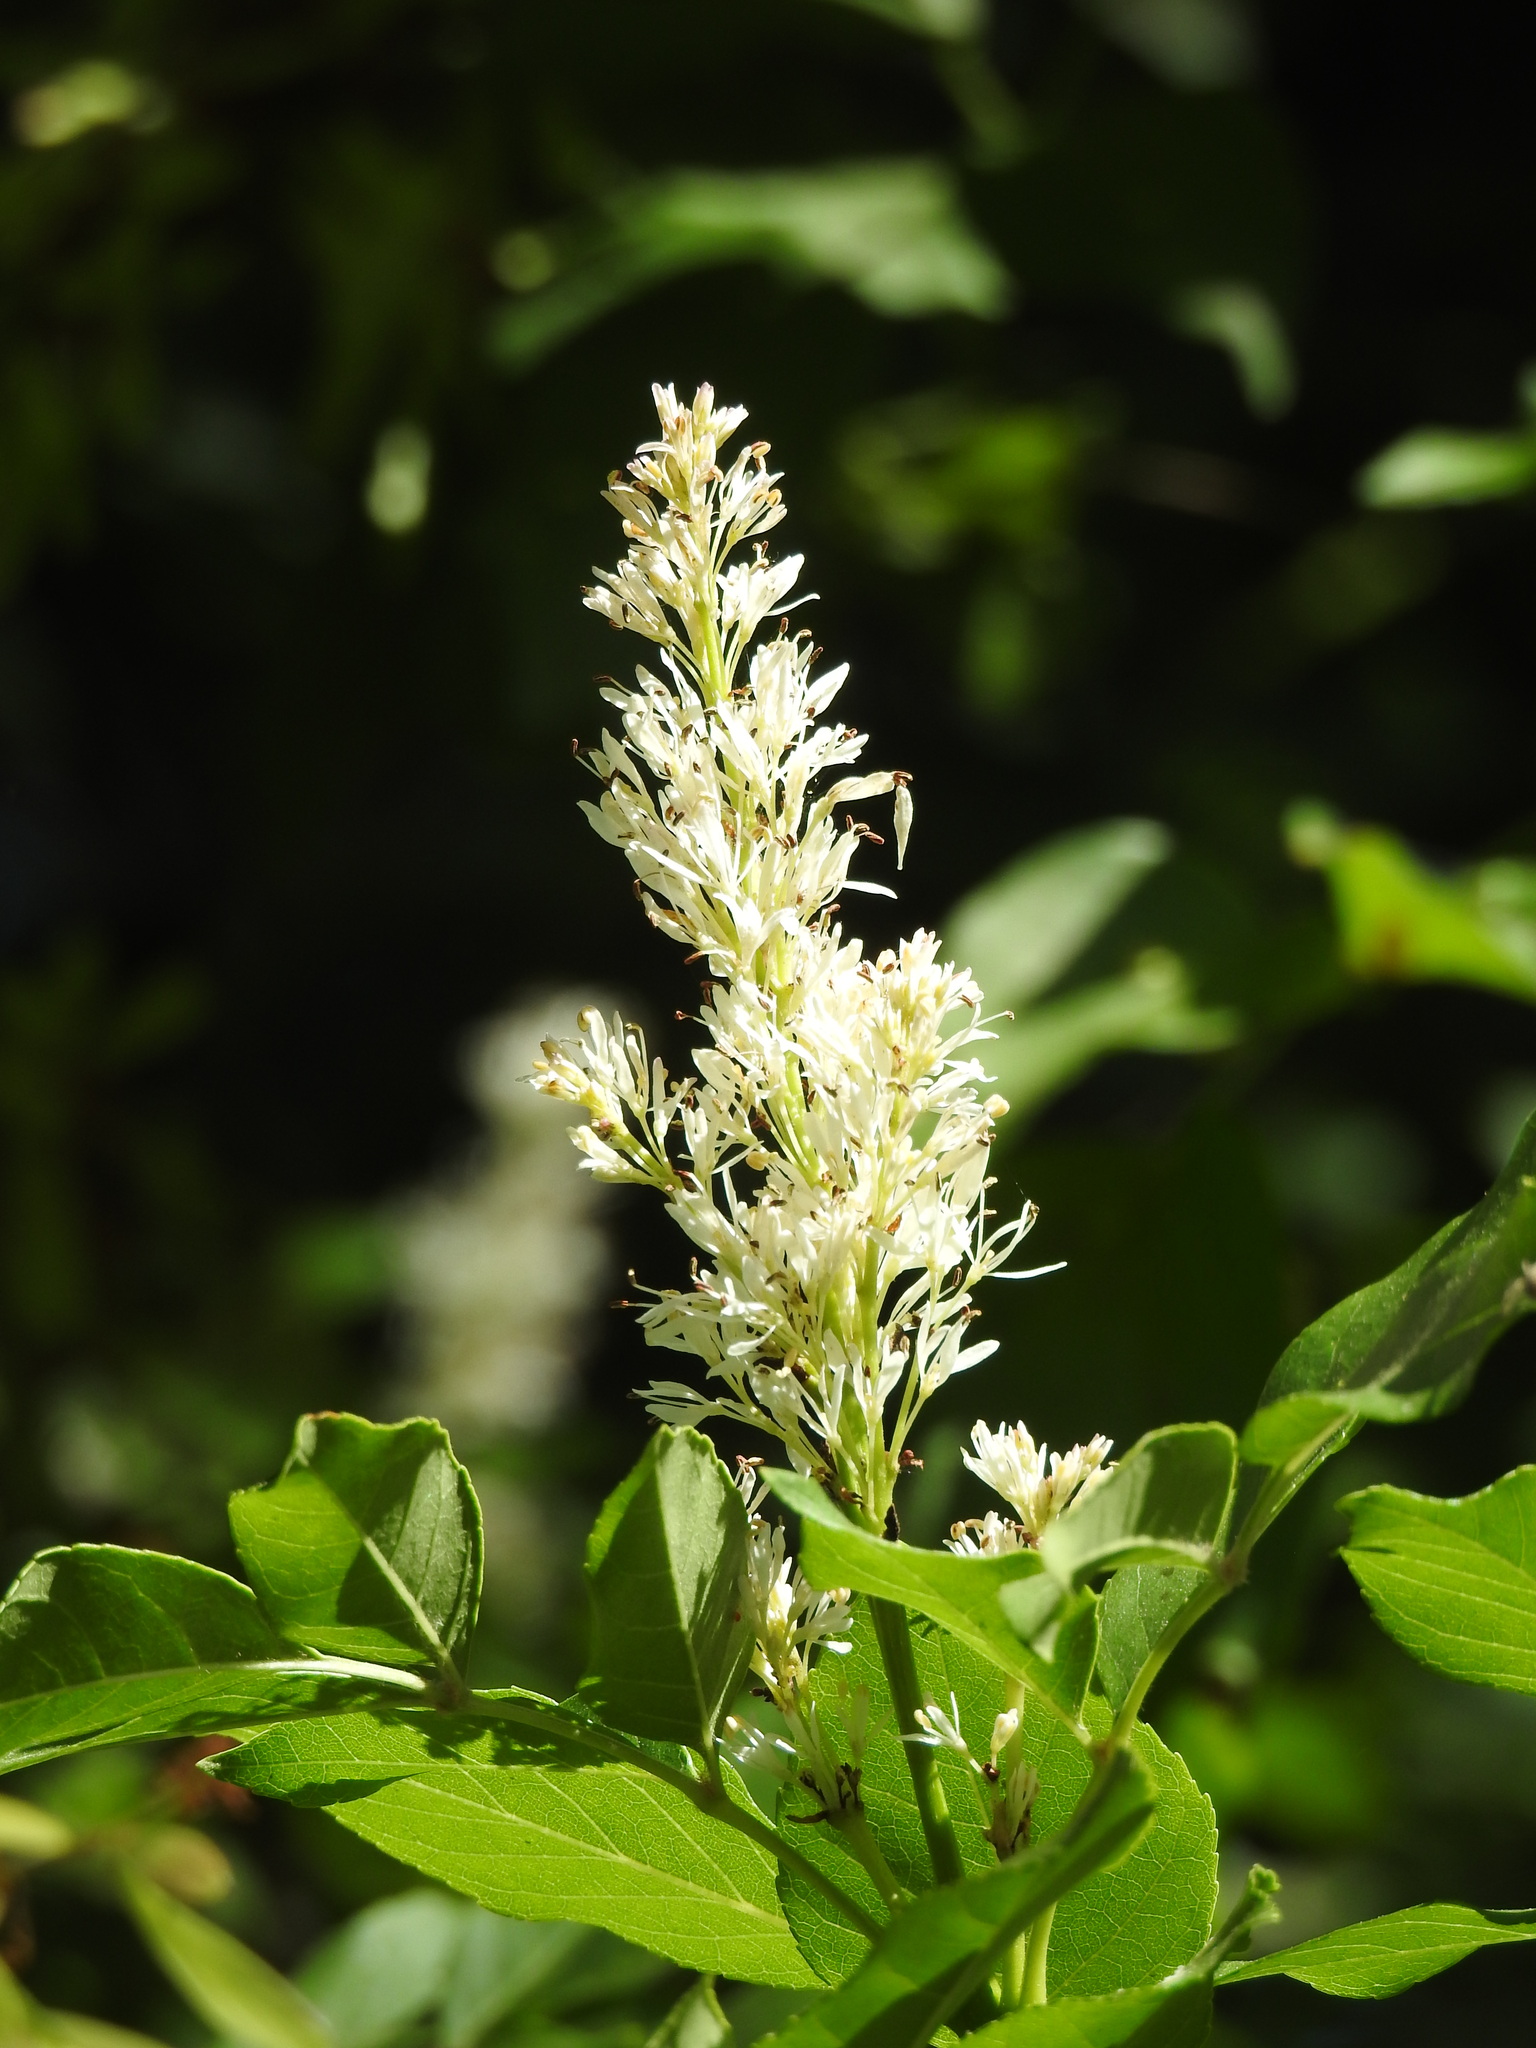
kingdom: Plantae
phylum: Tracheophyta
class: Magnoliopsida
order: Lamiales
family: Oleaceae
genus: Fraxinus
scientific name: Fraxinus ornus
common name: Manna ash
